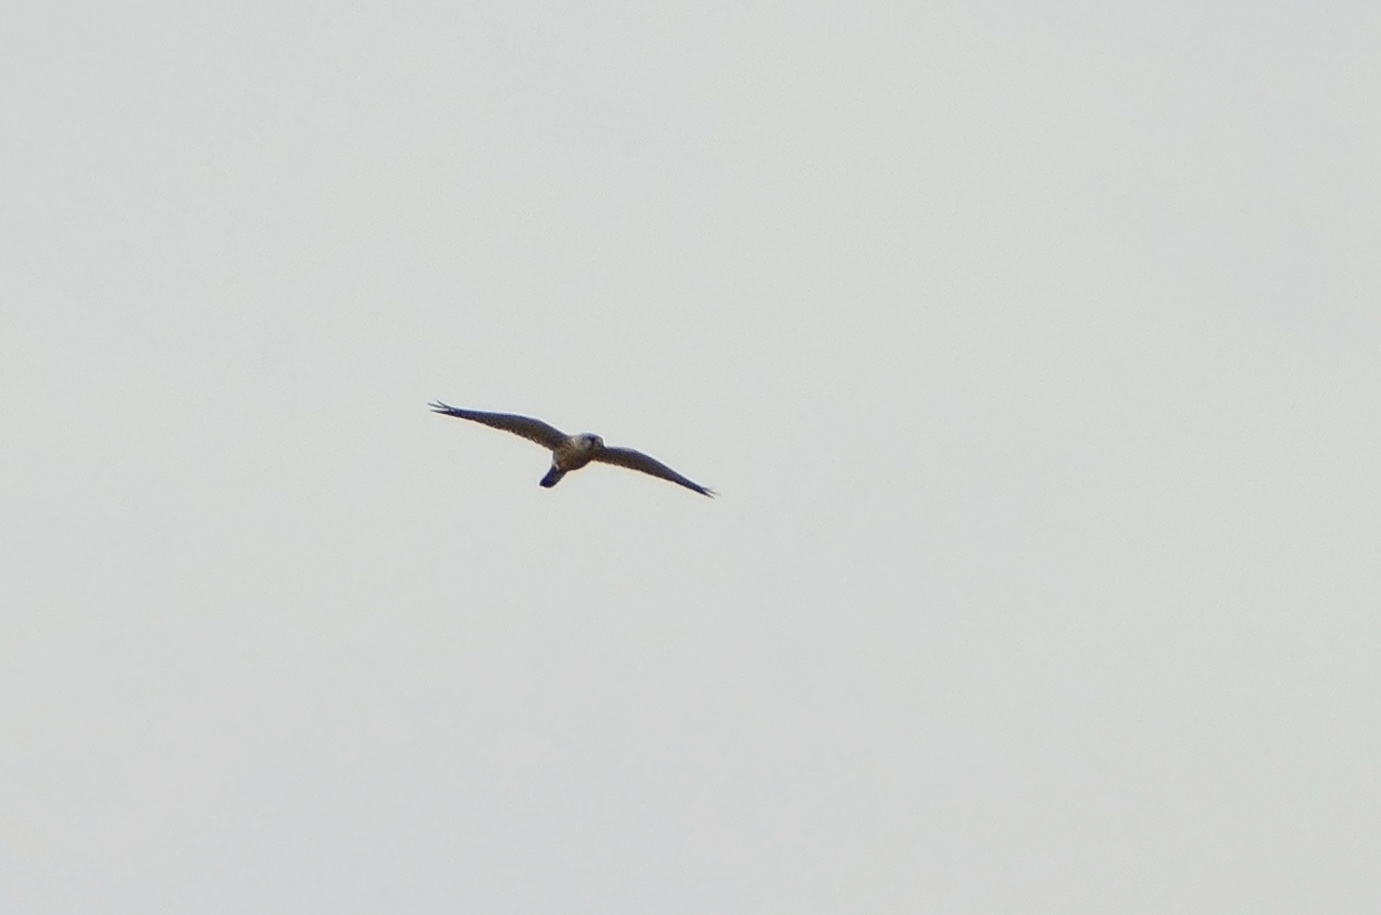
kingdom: Animalia
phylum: Chordata
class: Aves
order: Falconiformes
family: Falconidae
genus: Falco
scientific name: Falco tinnunculus
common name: Common kestrel
